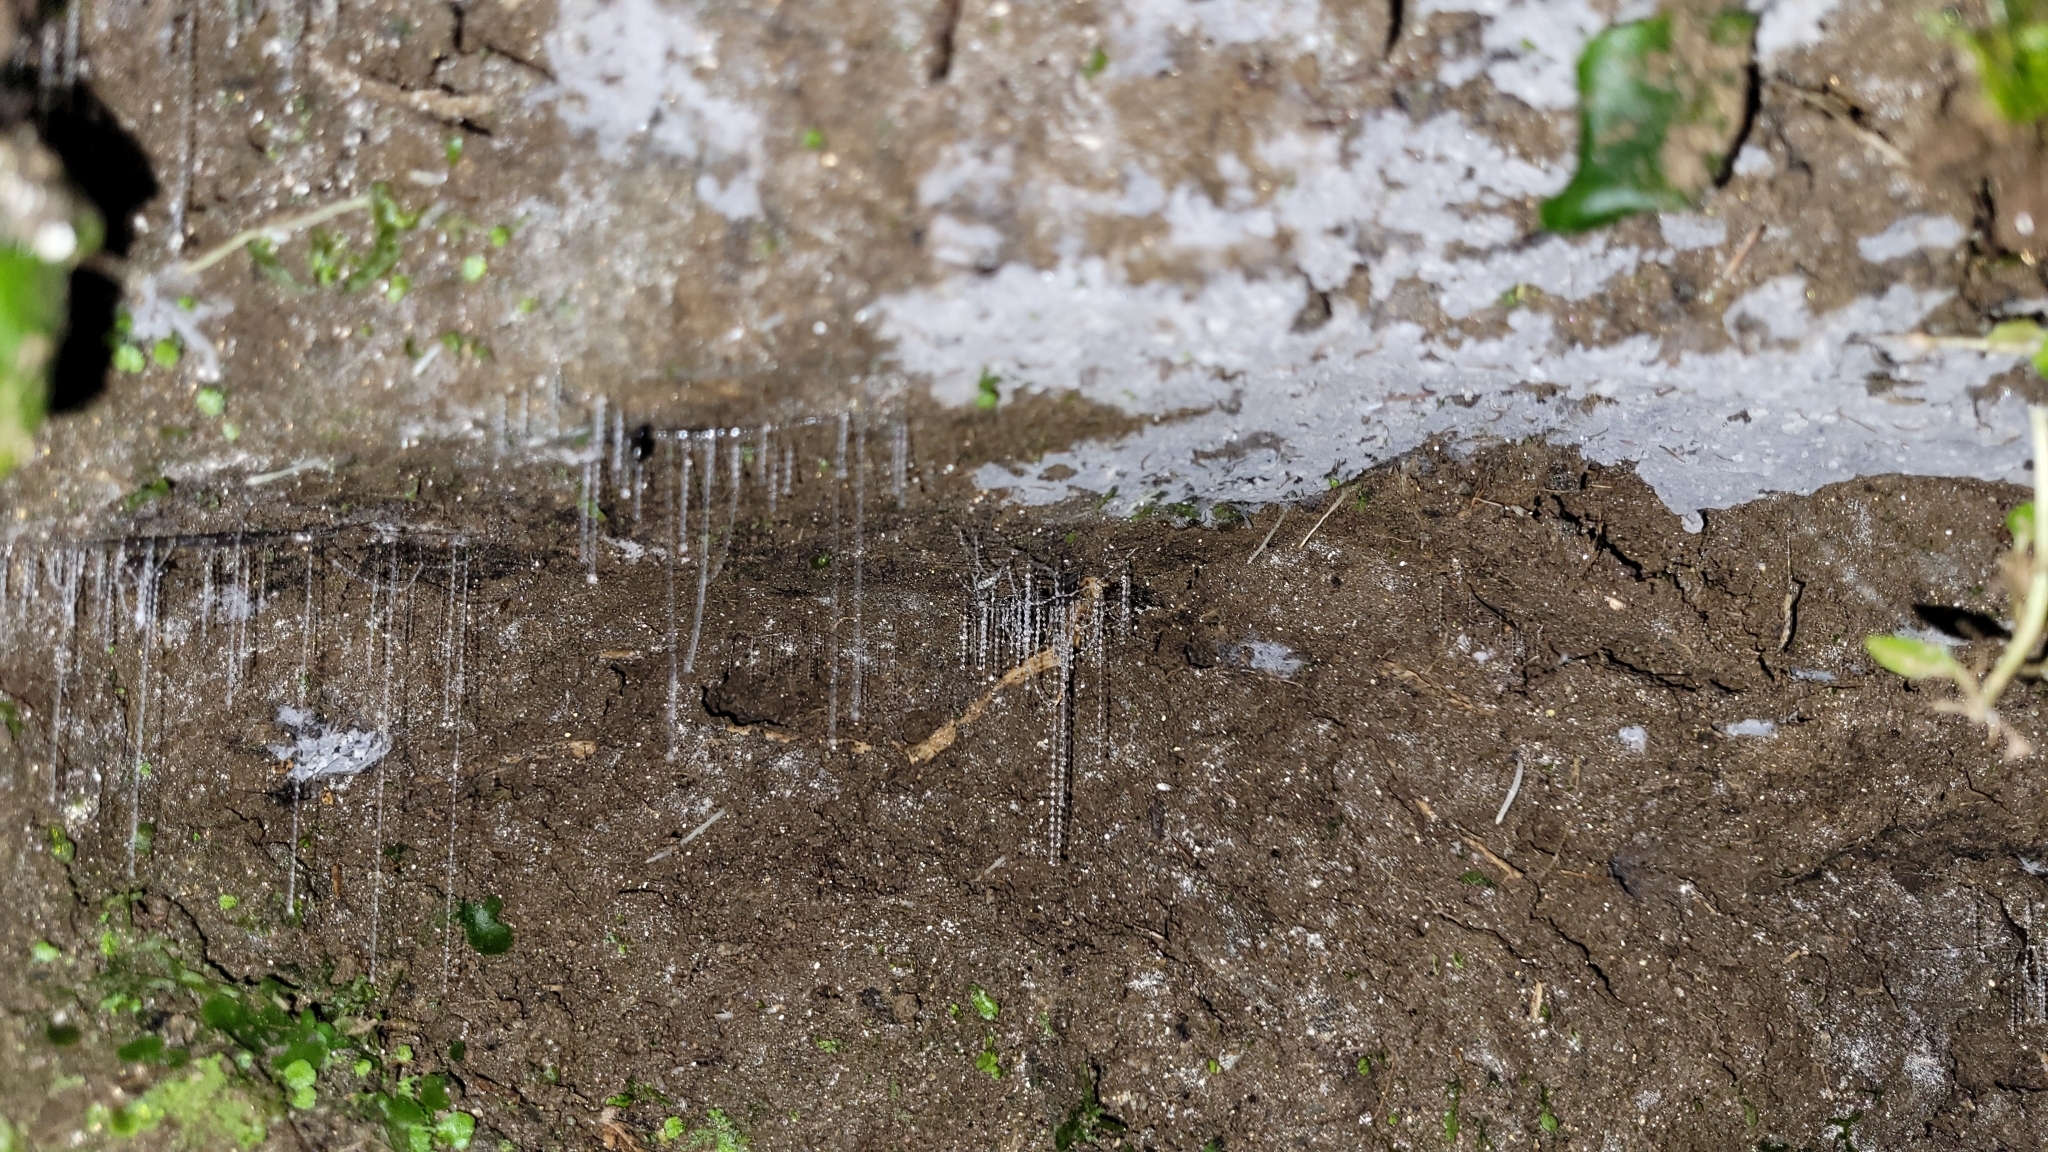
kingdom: Animalia
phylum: Arthropoda
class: Insecta
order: Diptera
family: Keroplatidae
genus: Arachnocampa
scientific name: Arachnocampa luminosa
